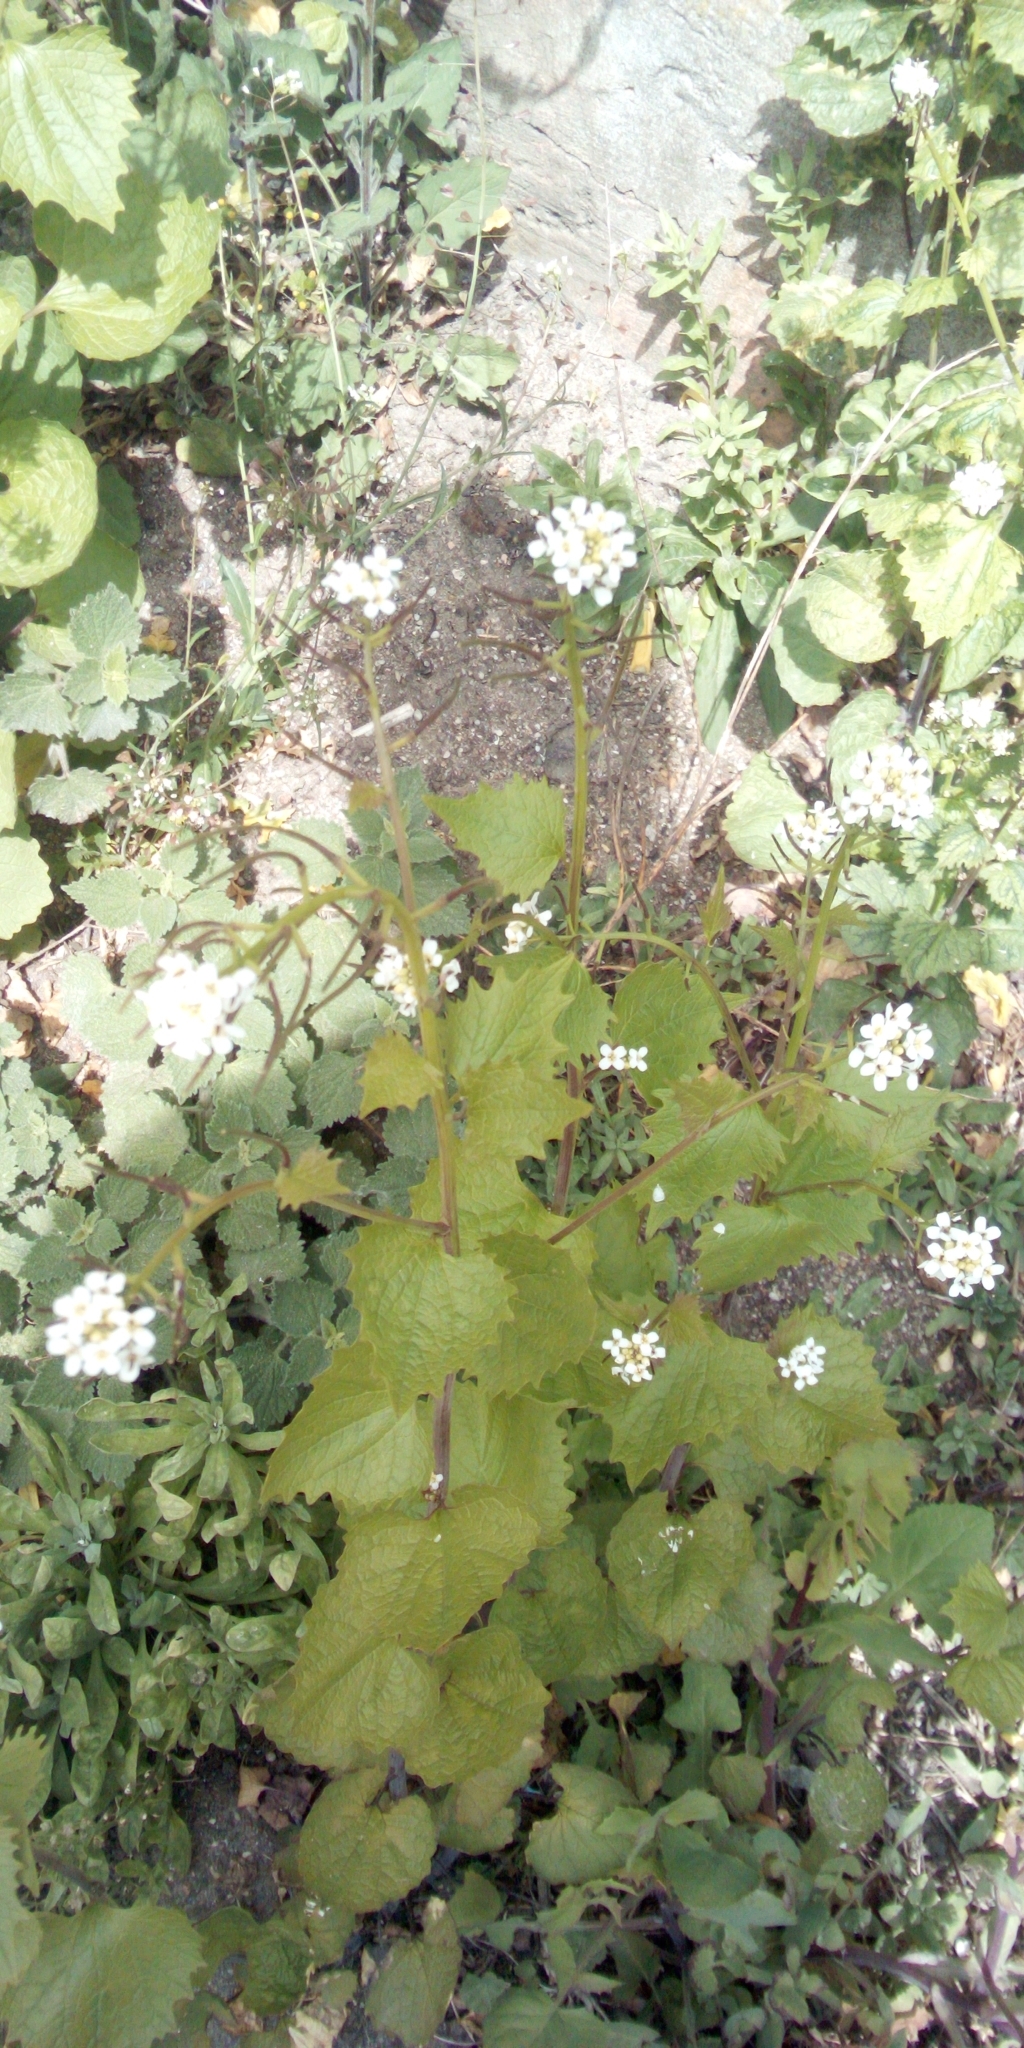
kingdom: Plantae
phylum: Tracheophyta
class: Magnoliopsida
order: Brassicales
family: Brassicaceae
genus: Alliaria
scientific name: Alliaria petiolata
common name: Garlic mustard
